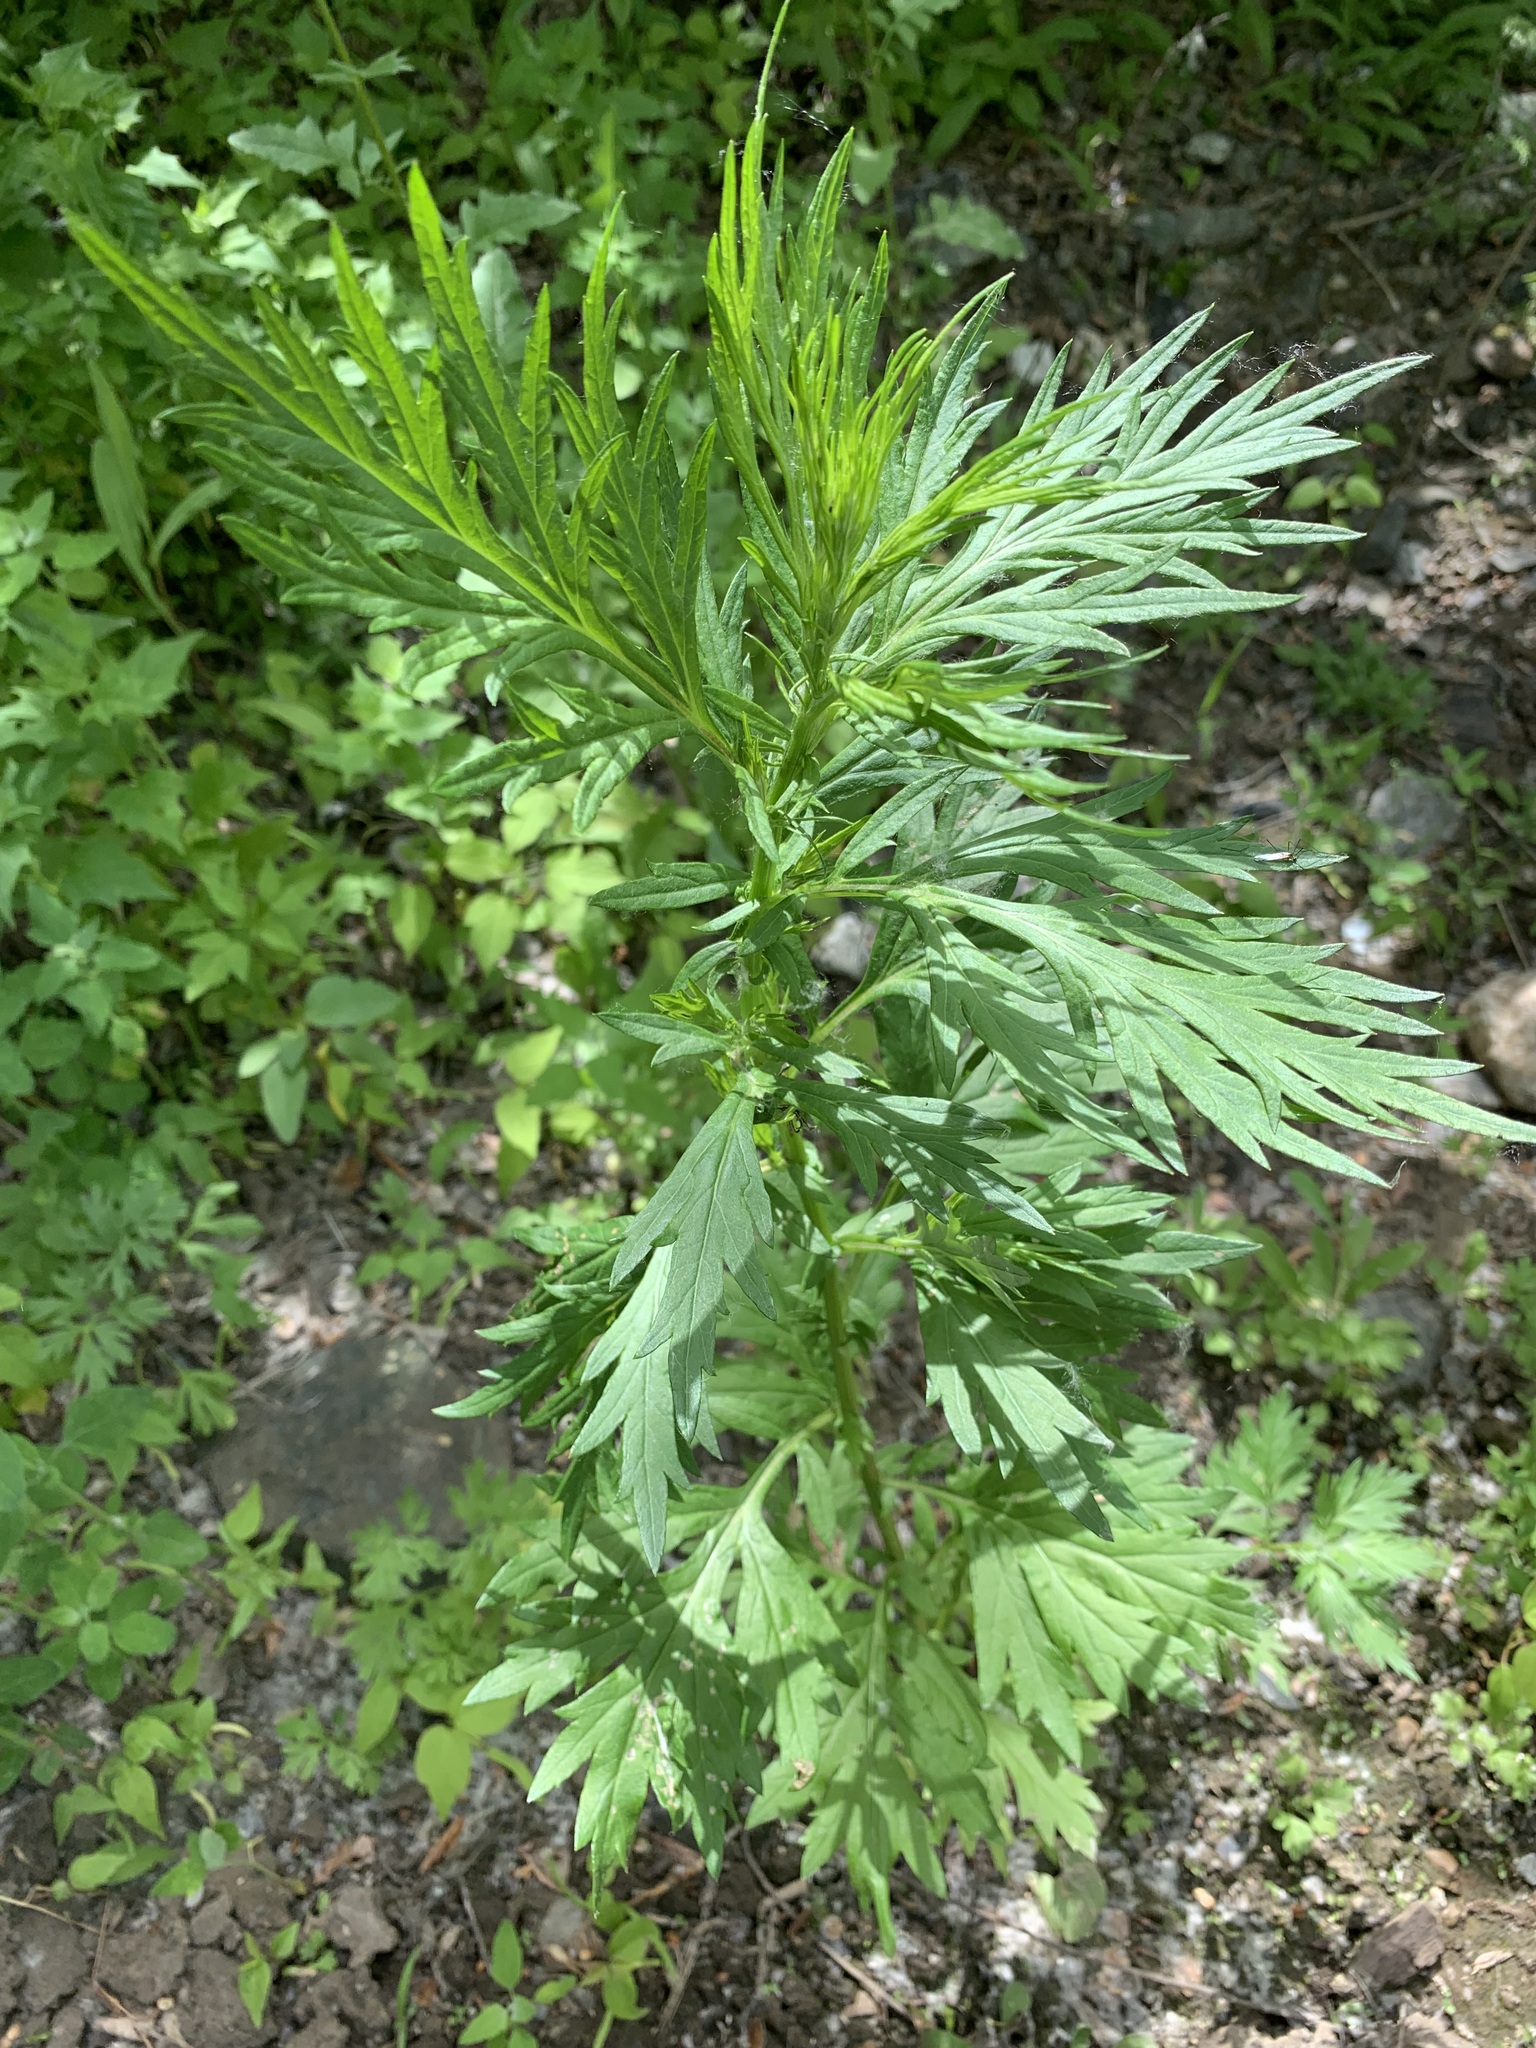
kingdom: Plantae
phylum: Tracheophyta
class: Magnoliopsida
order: Asterales
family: Asteraceae
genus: Artemisia
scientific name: Artemisia vulgaris
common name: Mugwort
